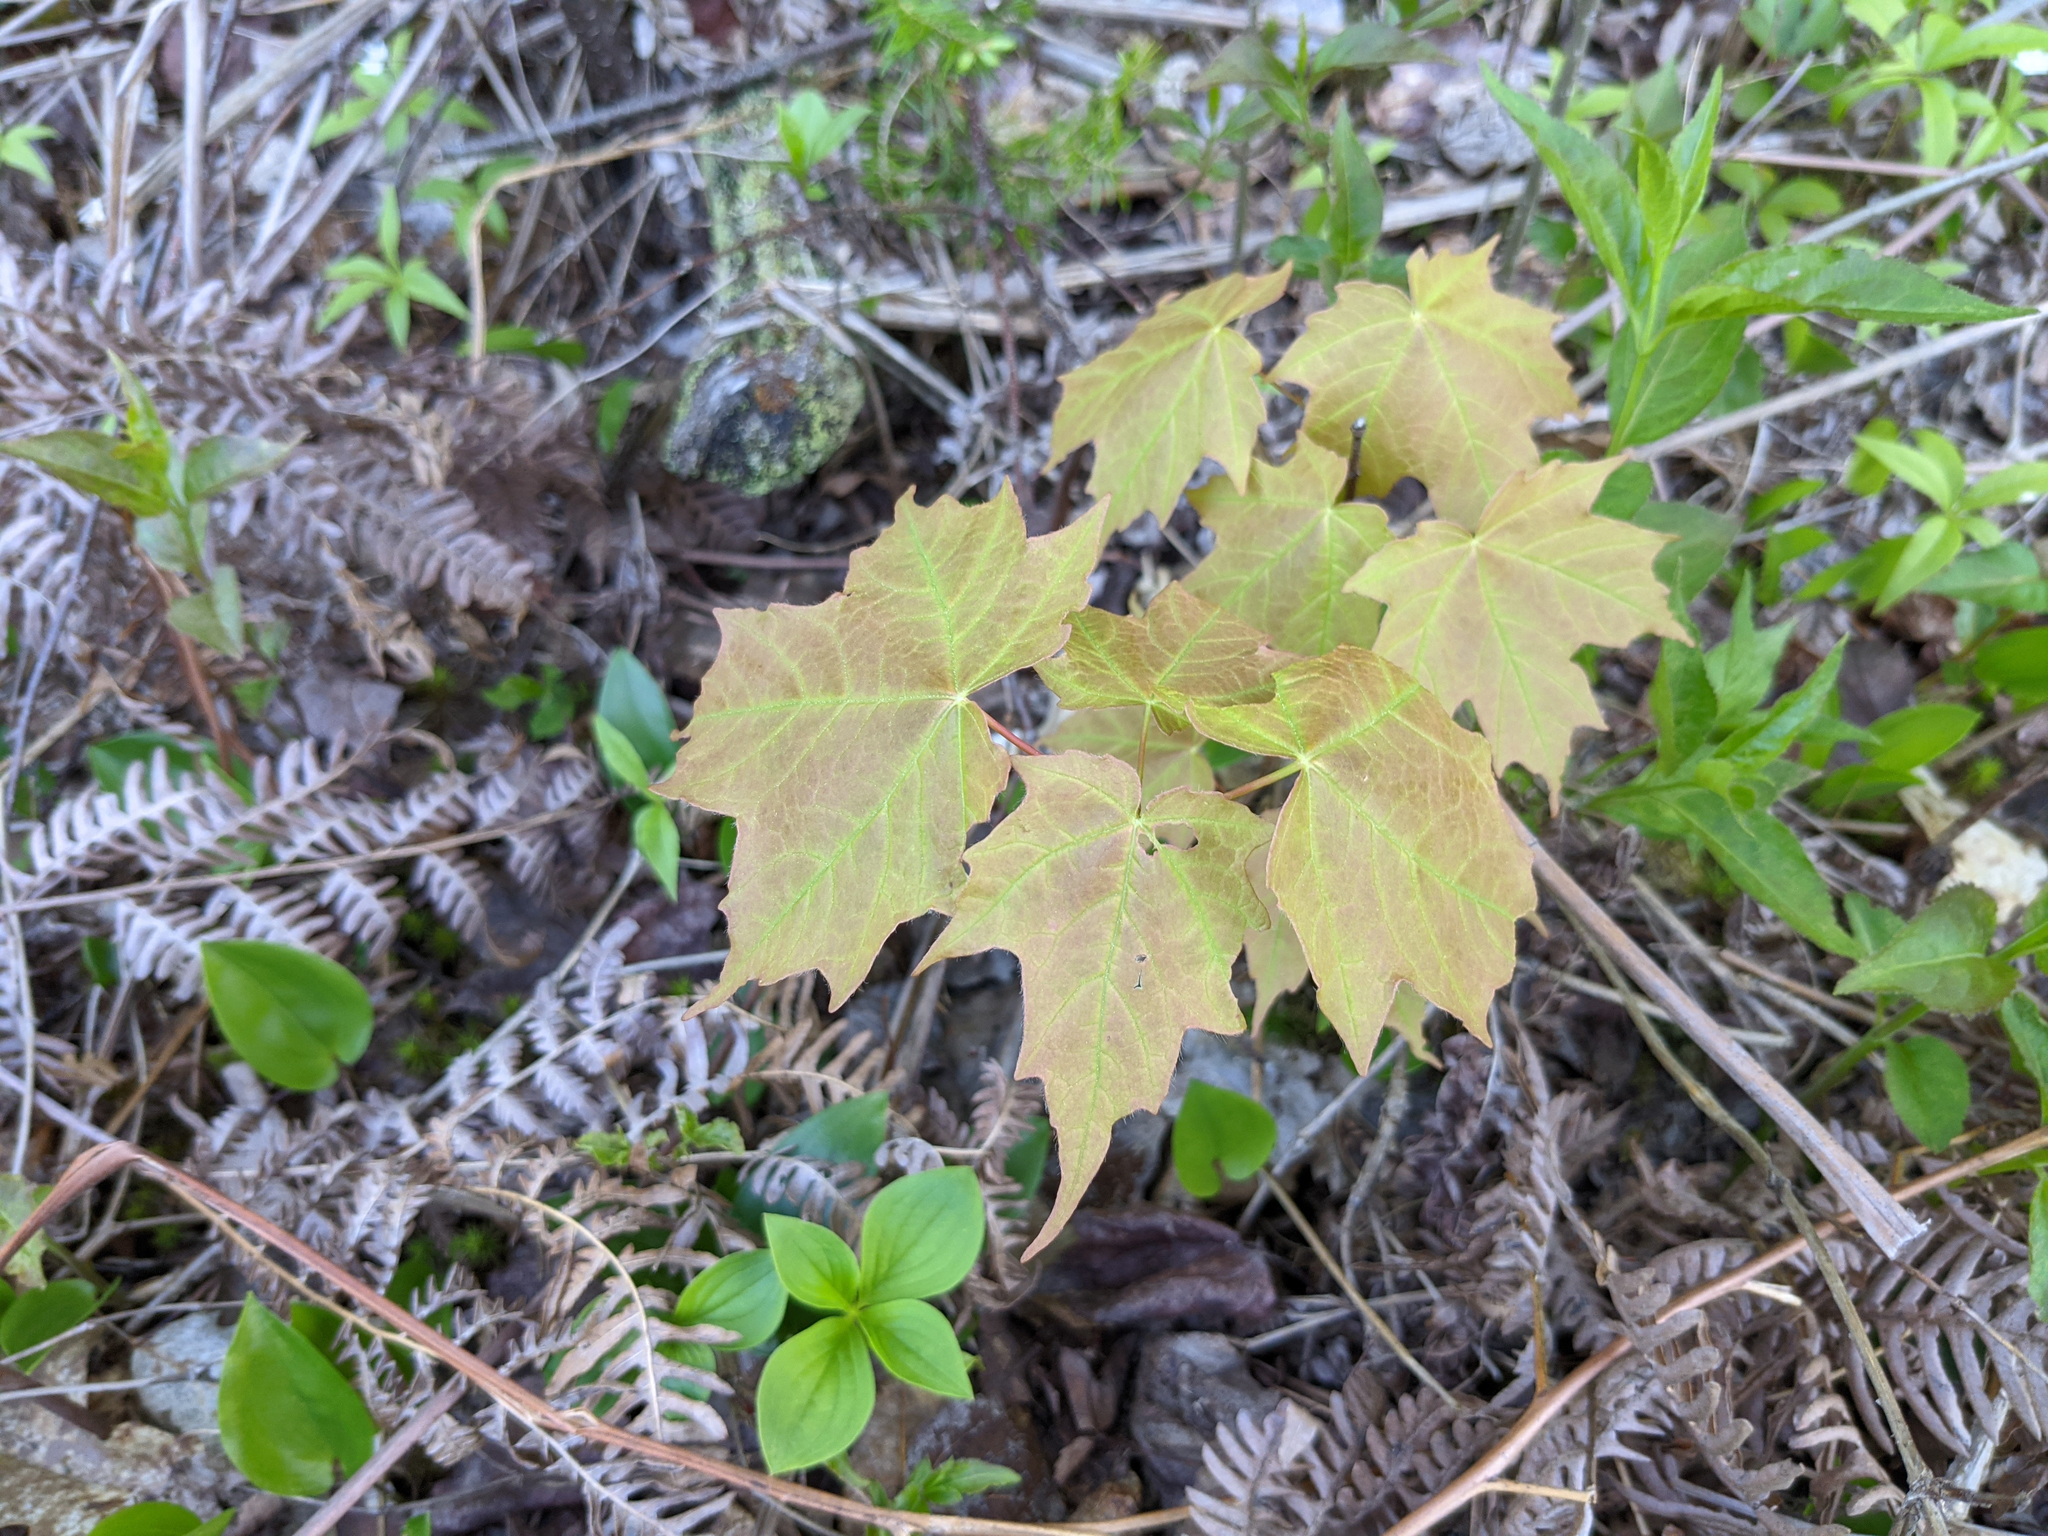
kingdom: Plantae
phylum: Tracheophyta
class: Magnoliopsida
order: Sapindales
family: Sapindaceae
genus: Acer
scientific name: Acer saccharum
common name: Sugar maple
